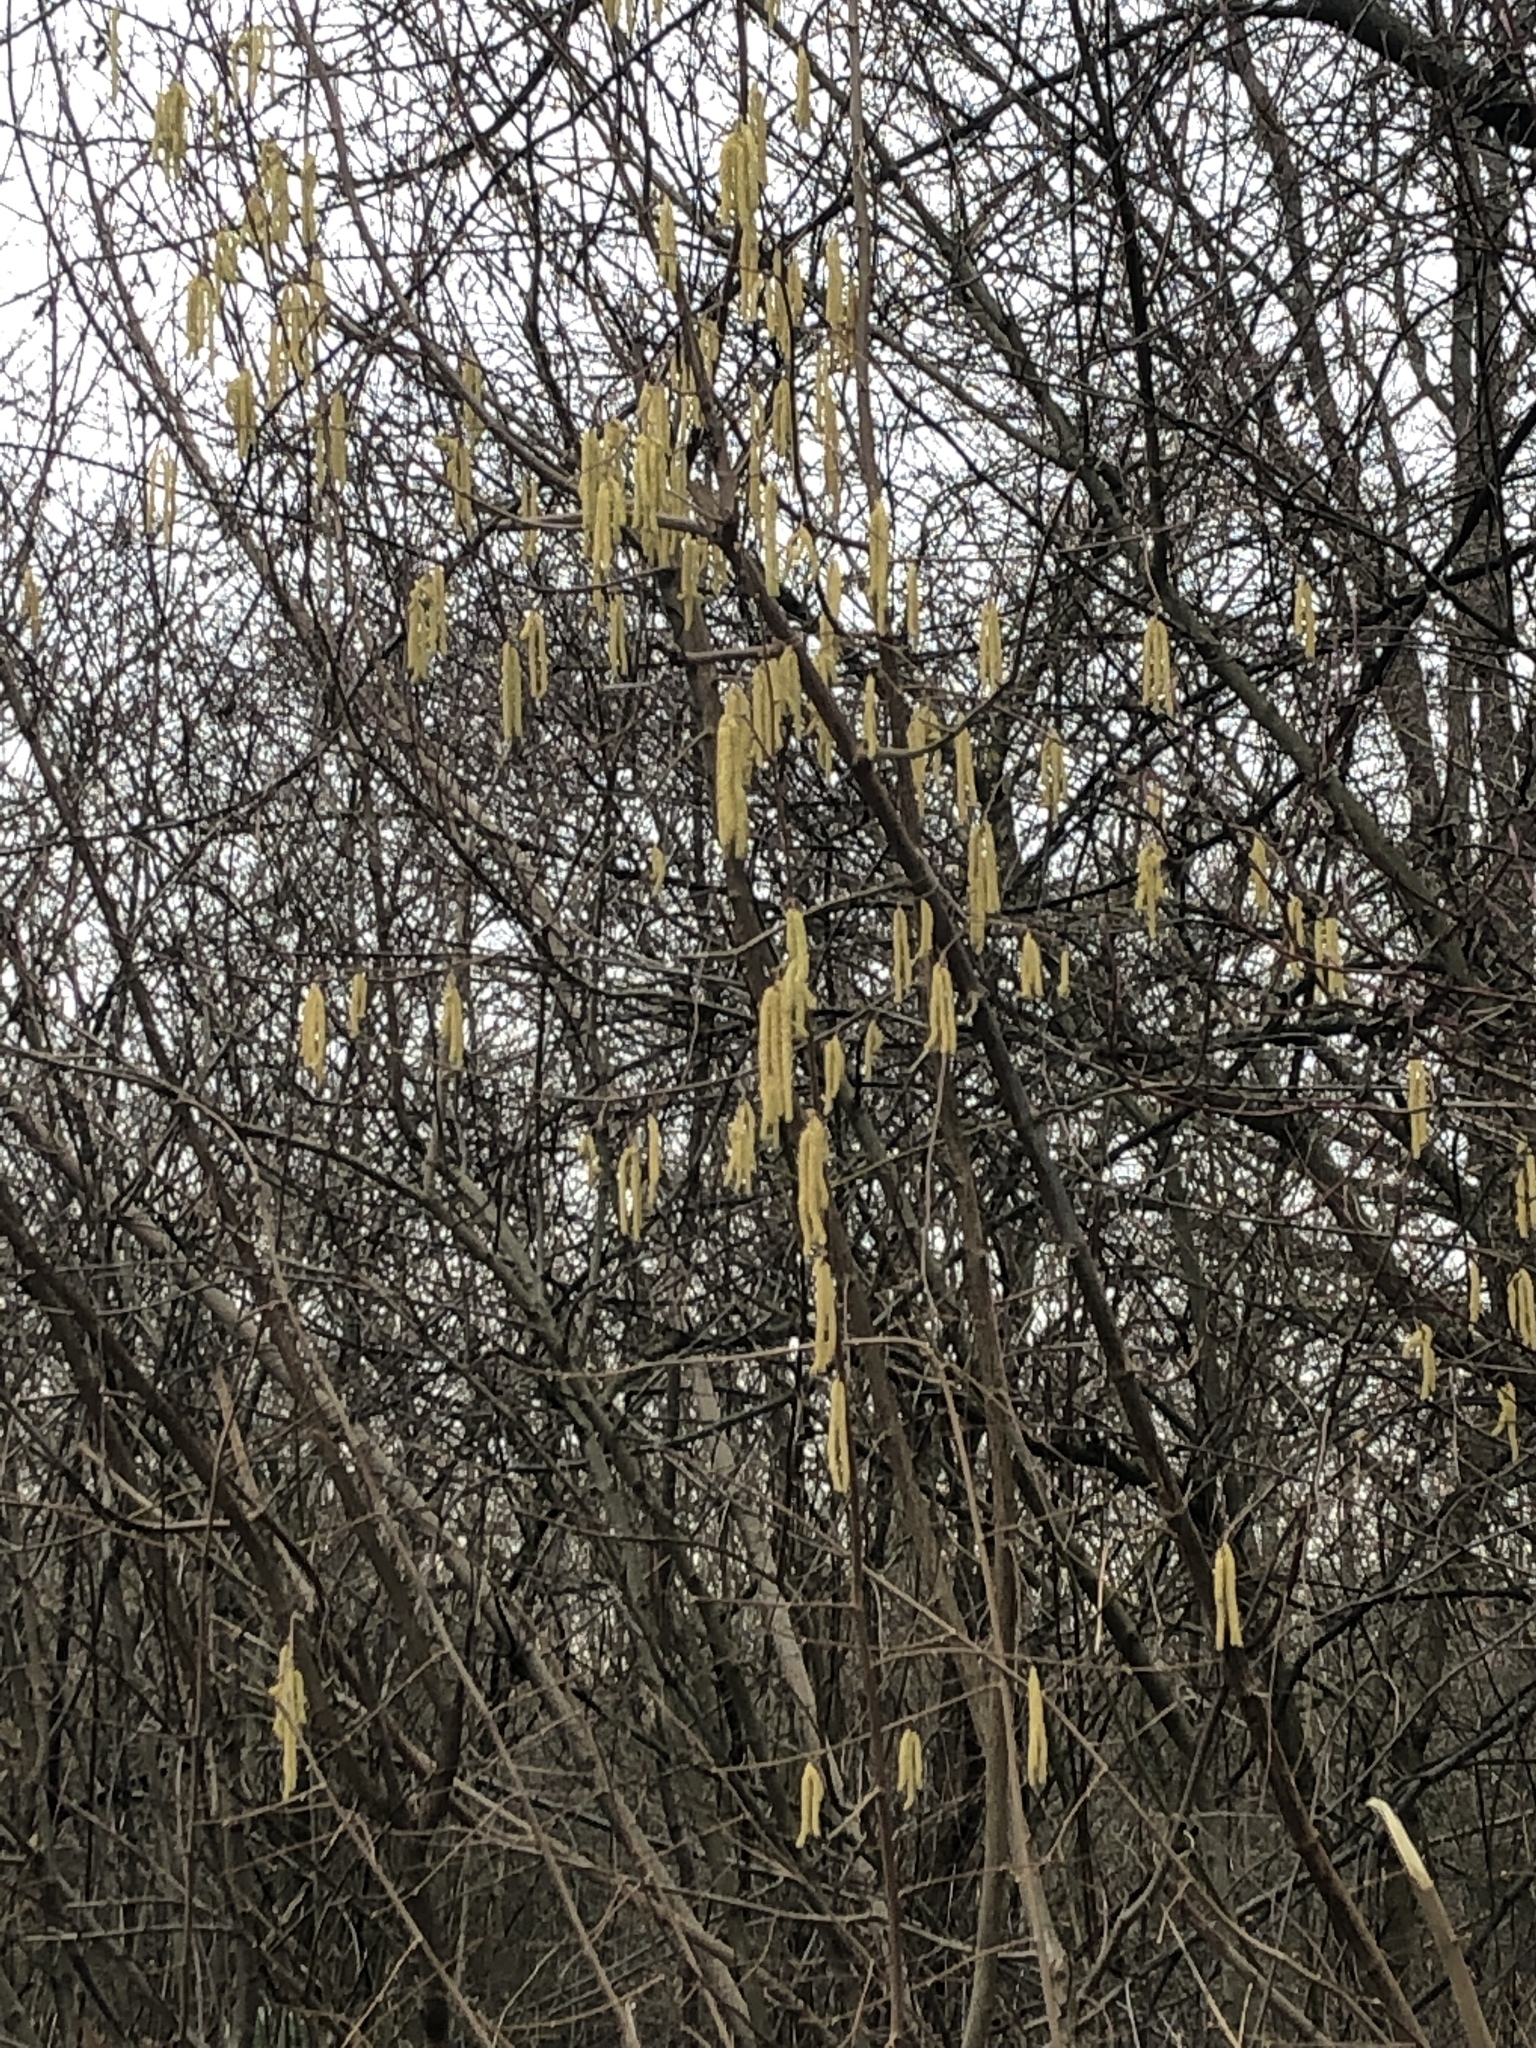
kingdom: Plantae
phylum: Tracheophyta
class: Magnoliopsida
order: Fagales
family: Betulaceae
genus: Corylus
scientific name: Corylus avellana
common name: European hazel
